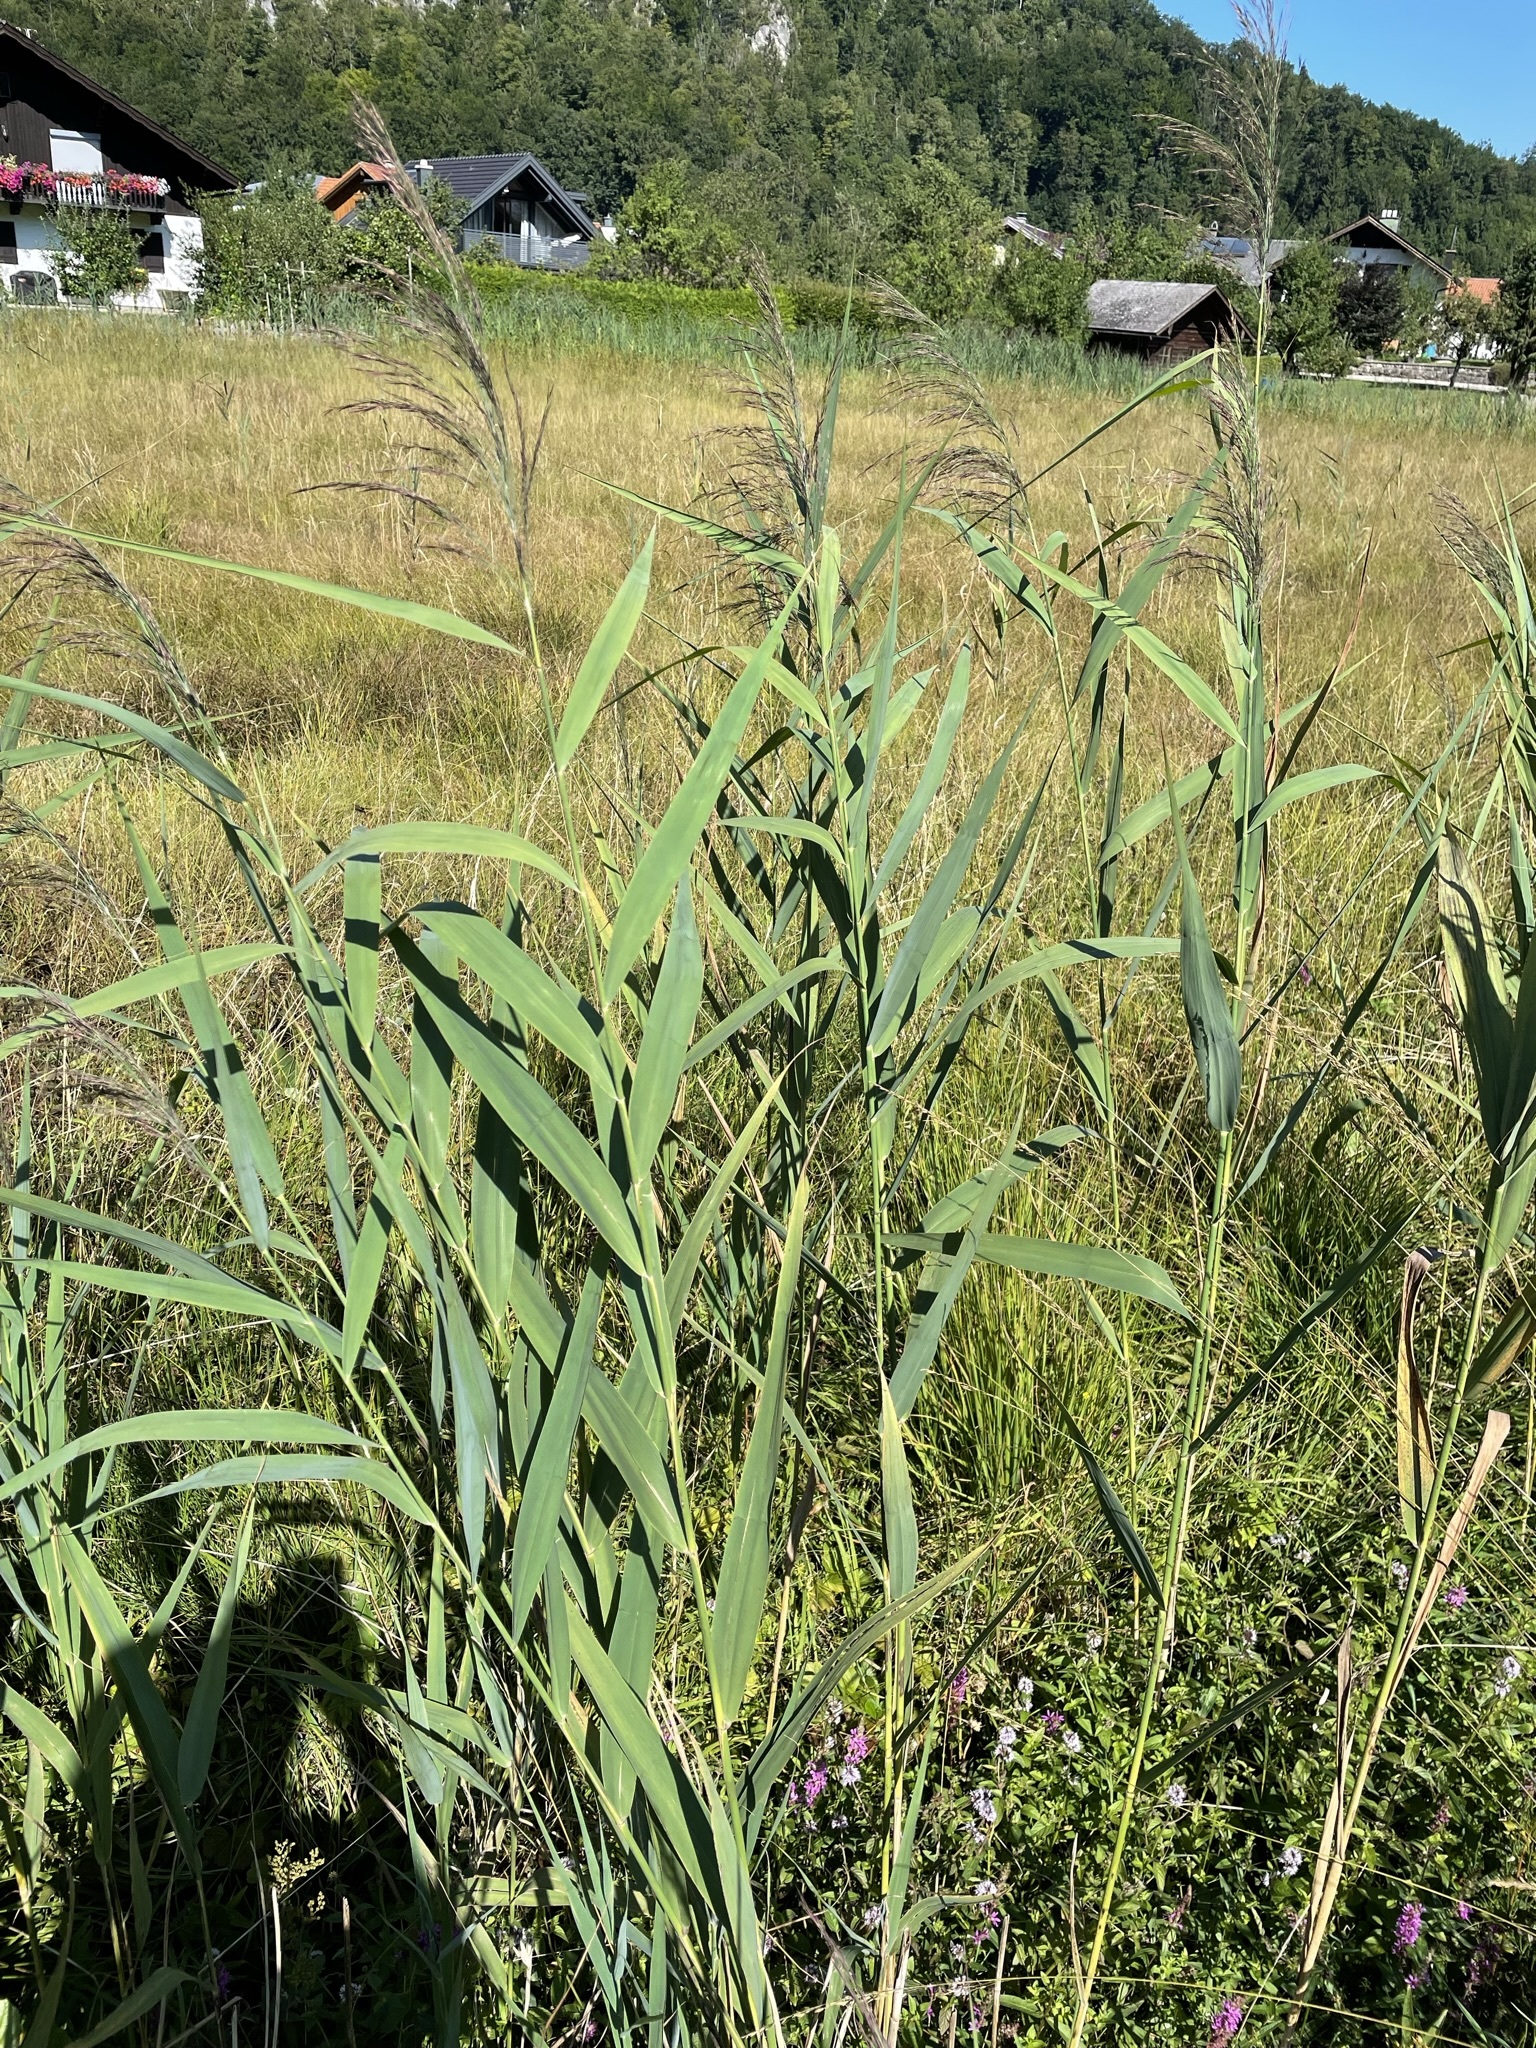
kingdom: Plantae
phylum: Tracheophyta
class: Liliopsida
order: Poales
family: Poaceae
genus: Phragmites
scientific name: Phragmites australis
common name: Common reed
